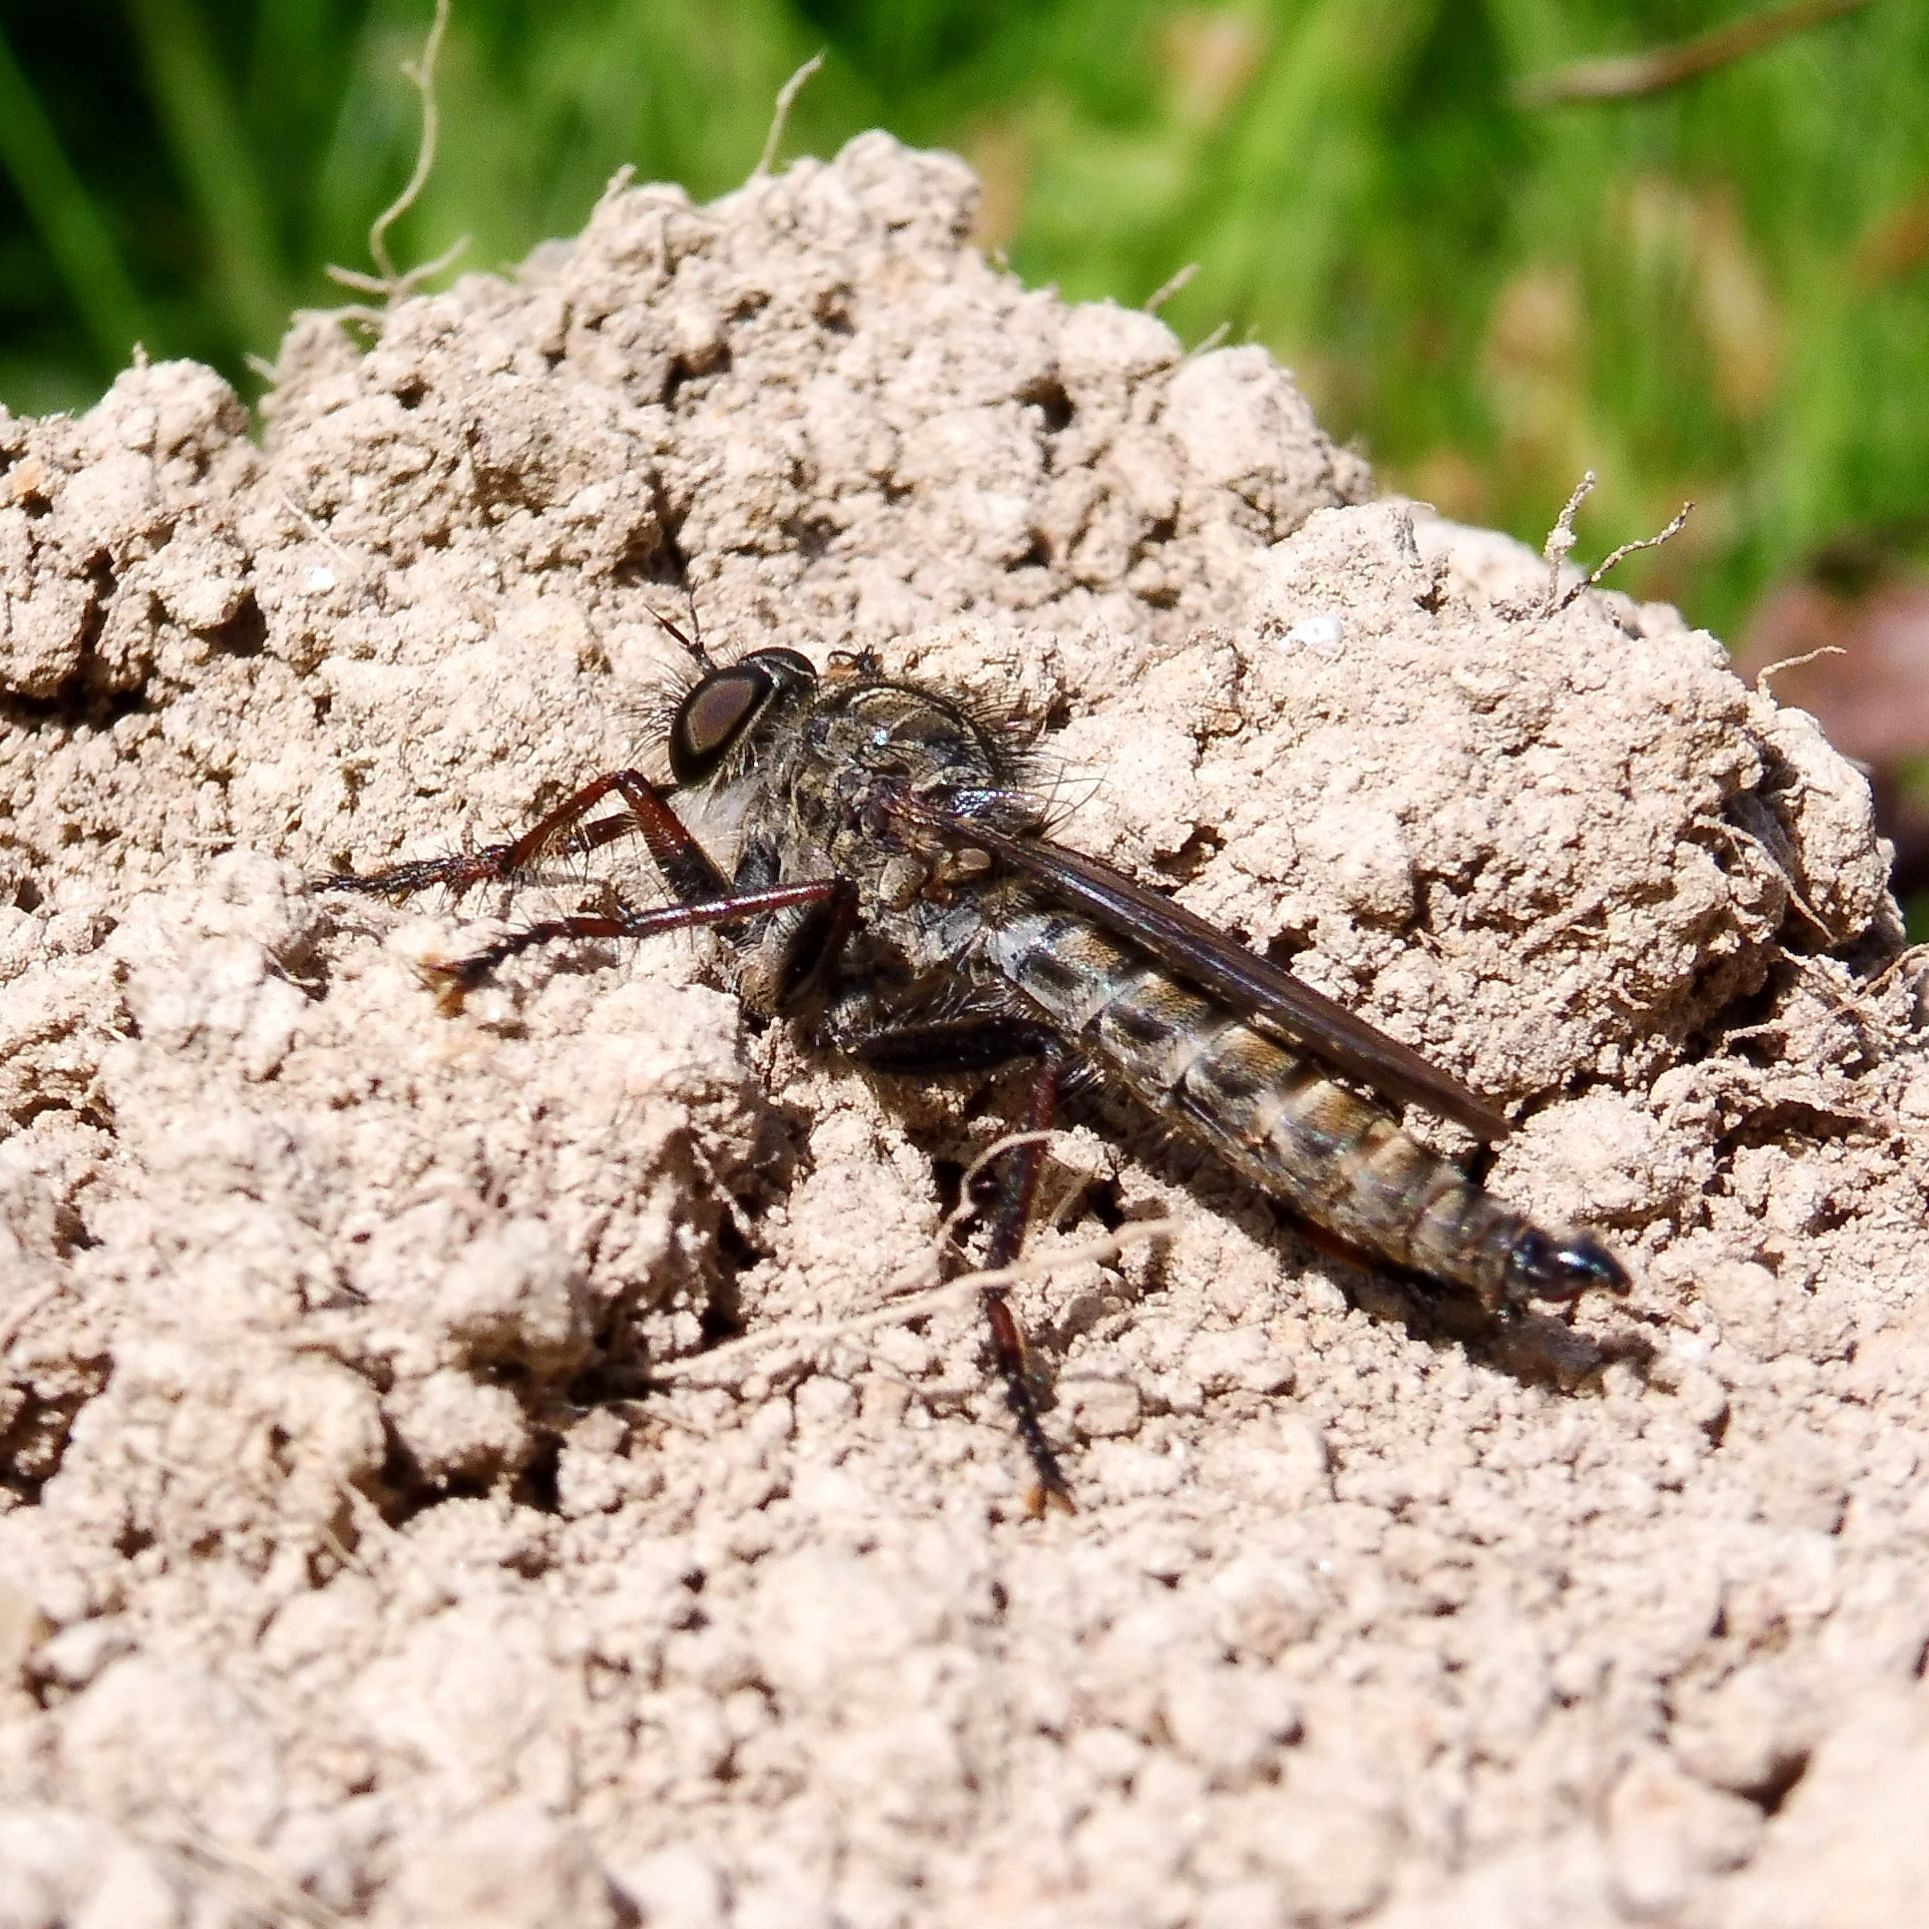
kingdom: Animalia
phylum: Arthropoda
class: Insecta
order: Diptera
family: Asilidae
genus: Machimus
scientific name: Machimus atricapillus
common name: Kite-tailed robberfly
